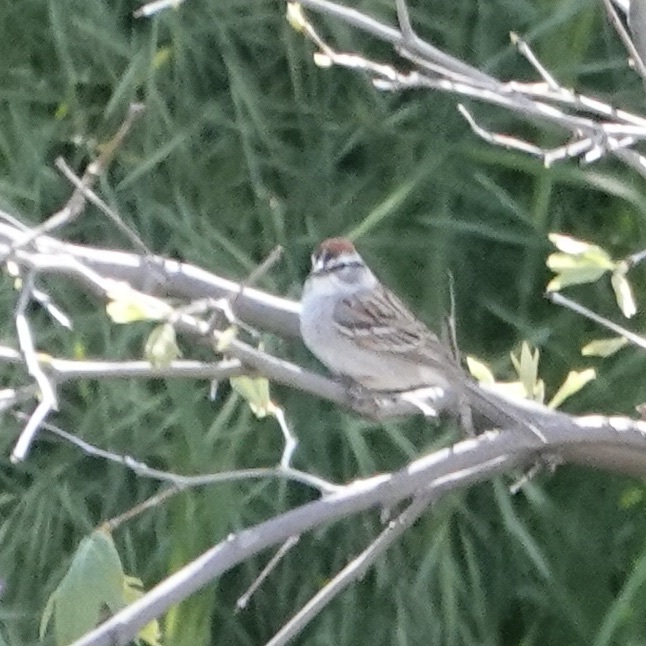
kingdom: Animalia
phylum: Chordata
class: Aves
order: Passeriformes
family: Passerellidae
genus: Spizella
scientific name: Spizella passerina
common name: Chipping sparrow
